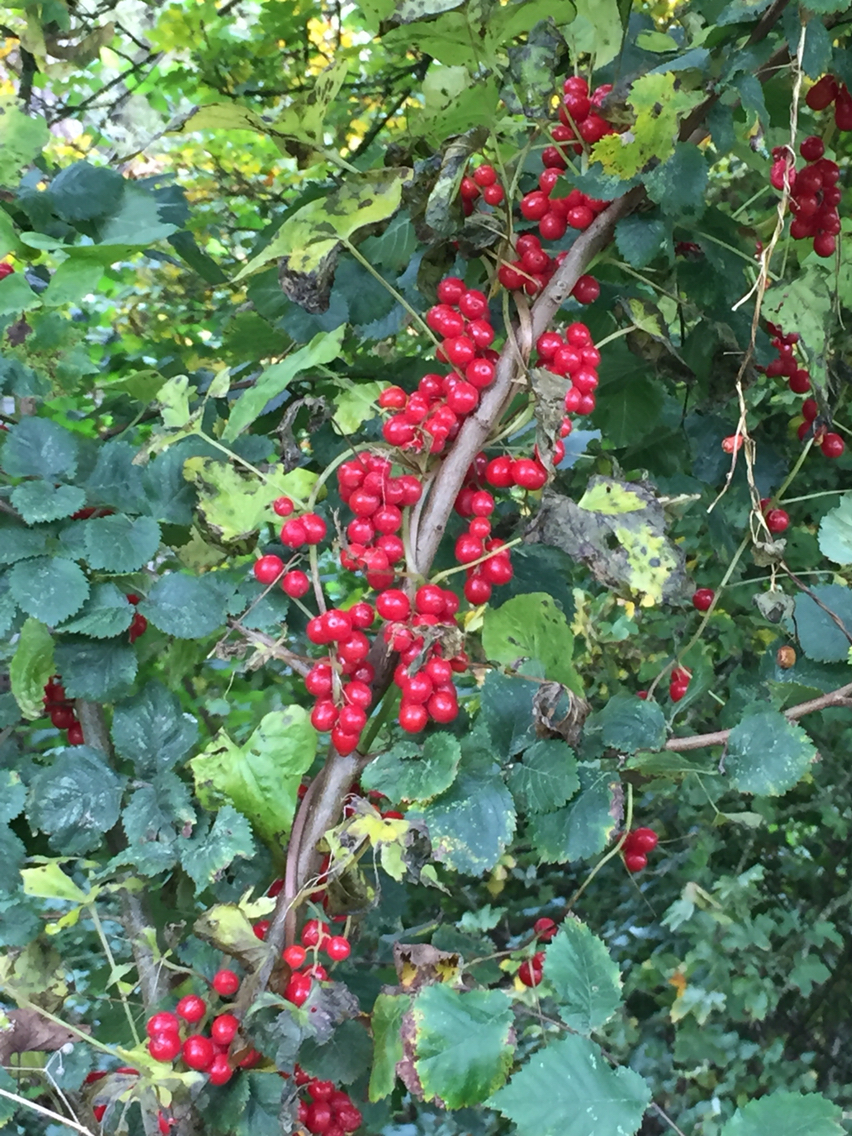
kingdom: Plantae
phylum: Tracheophyta
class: Liliopsida
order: Dioscoreales
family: Dioscoreaceae
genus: Dioscorea
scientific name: Dioscorea communis
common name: Black-bindweed
